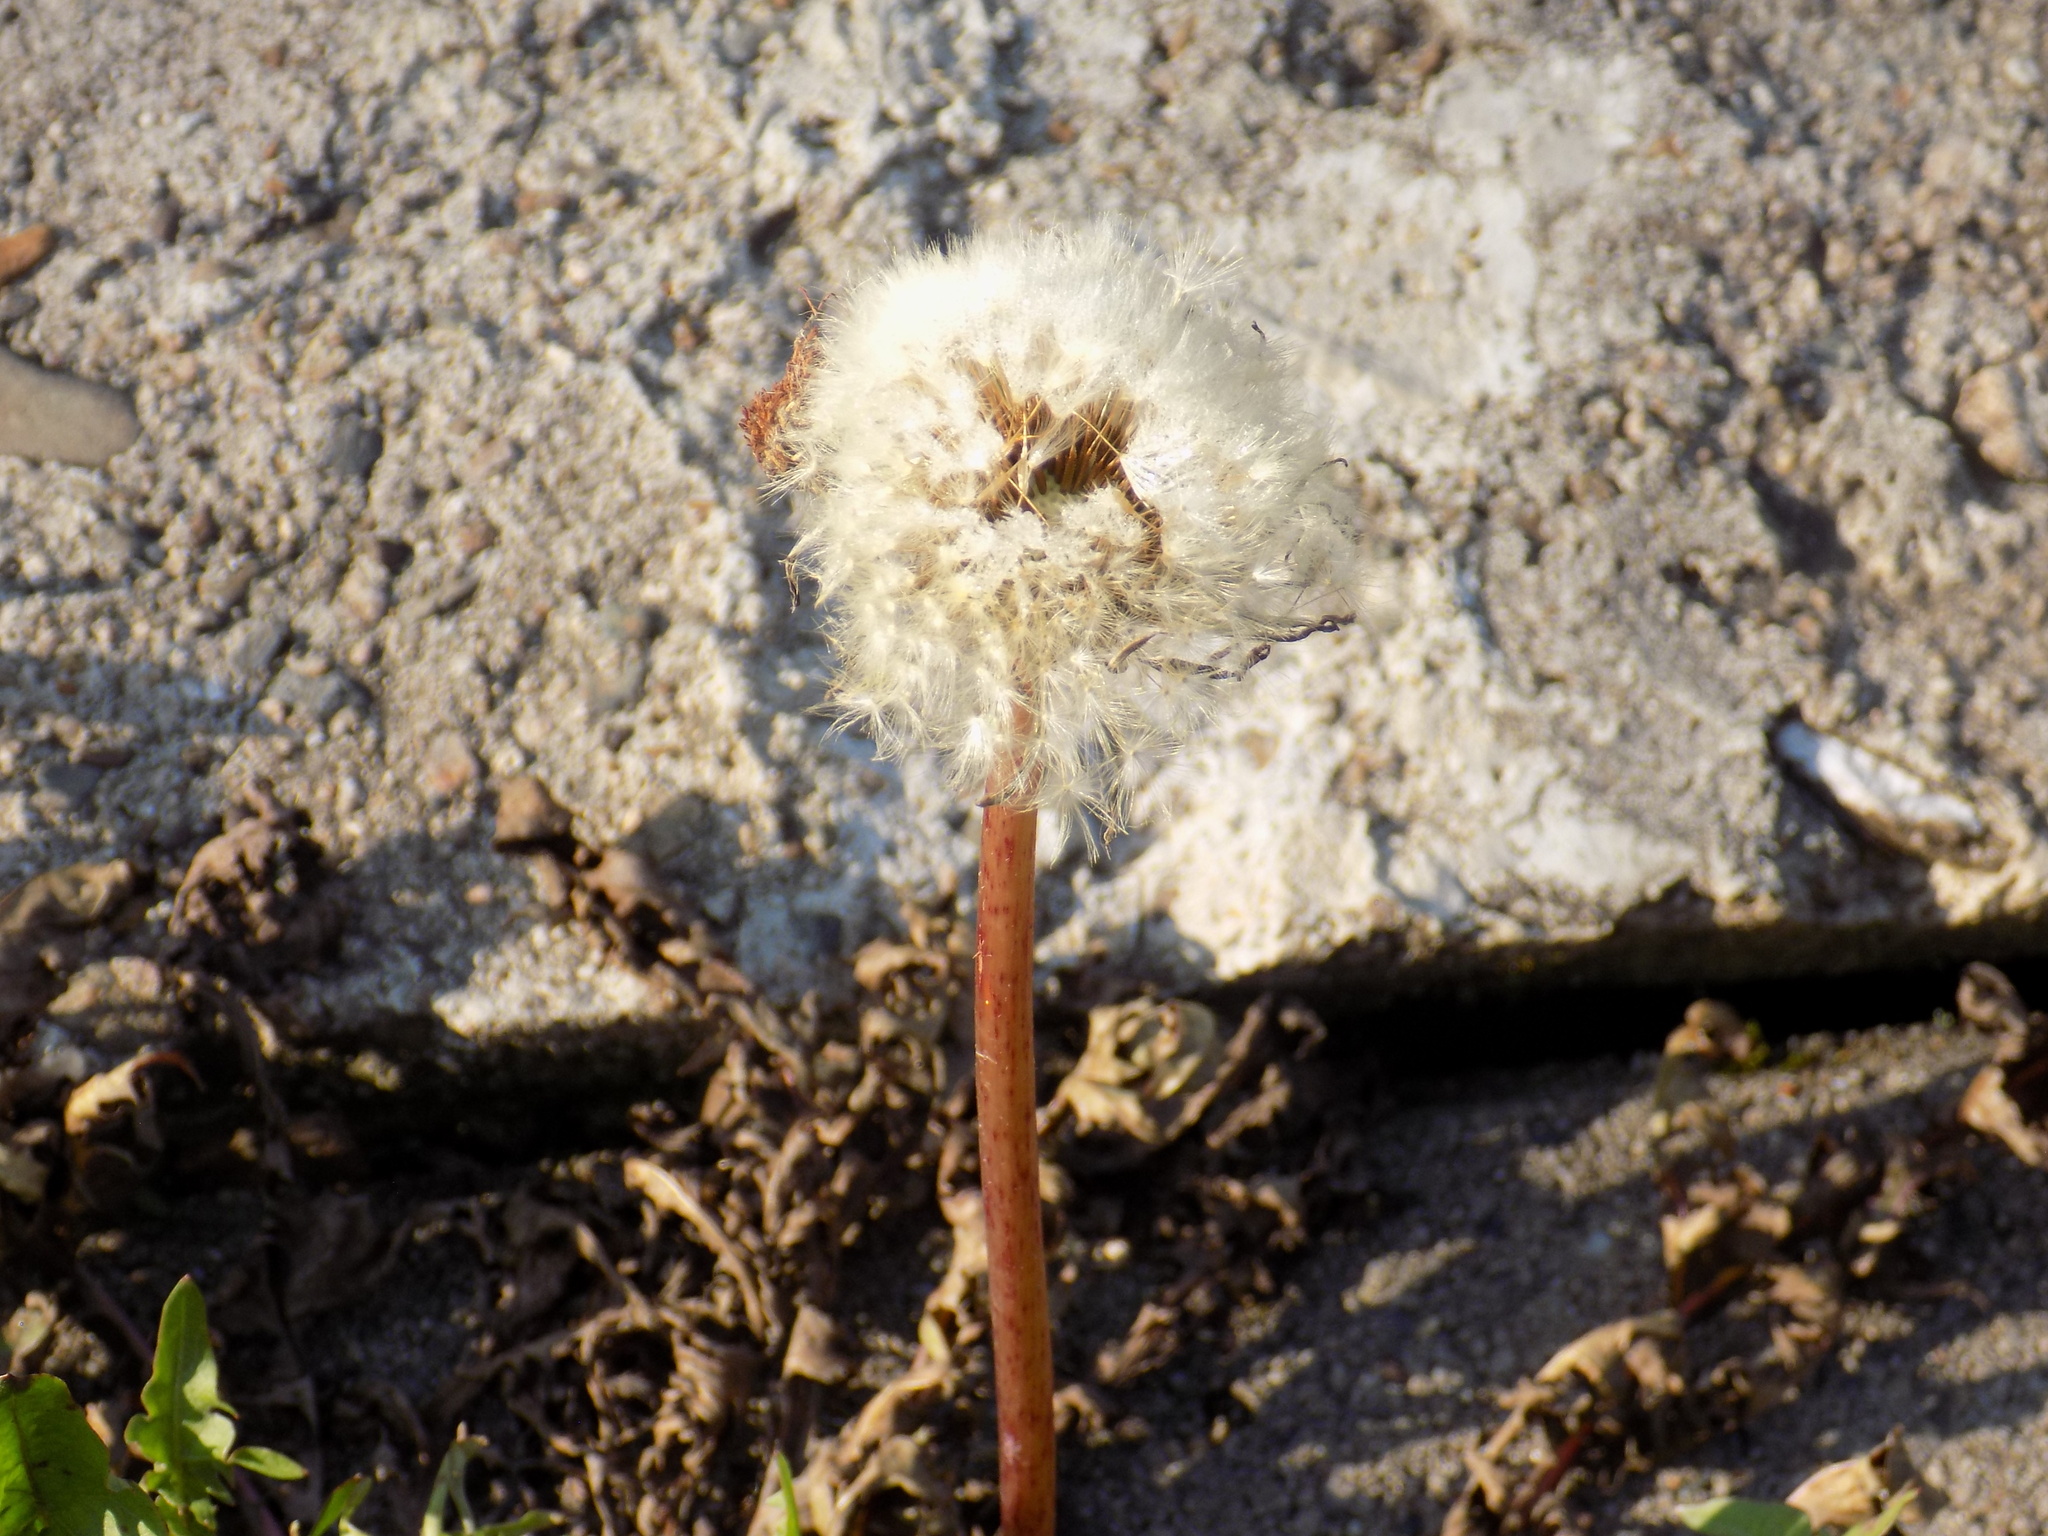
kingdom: Plantae
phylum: Tracheophyta
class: Magnoliopsida
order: Asterales
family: Asteraceae
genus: Taraxacum
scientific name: Taraxacum
